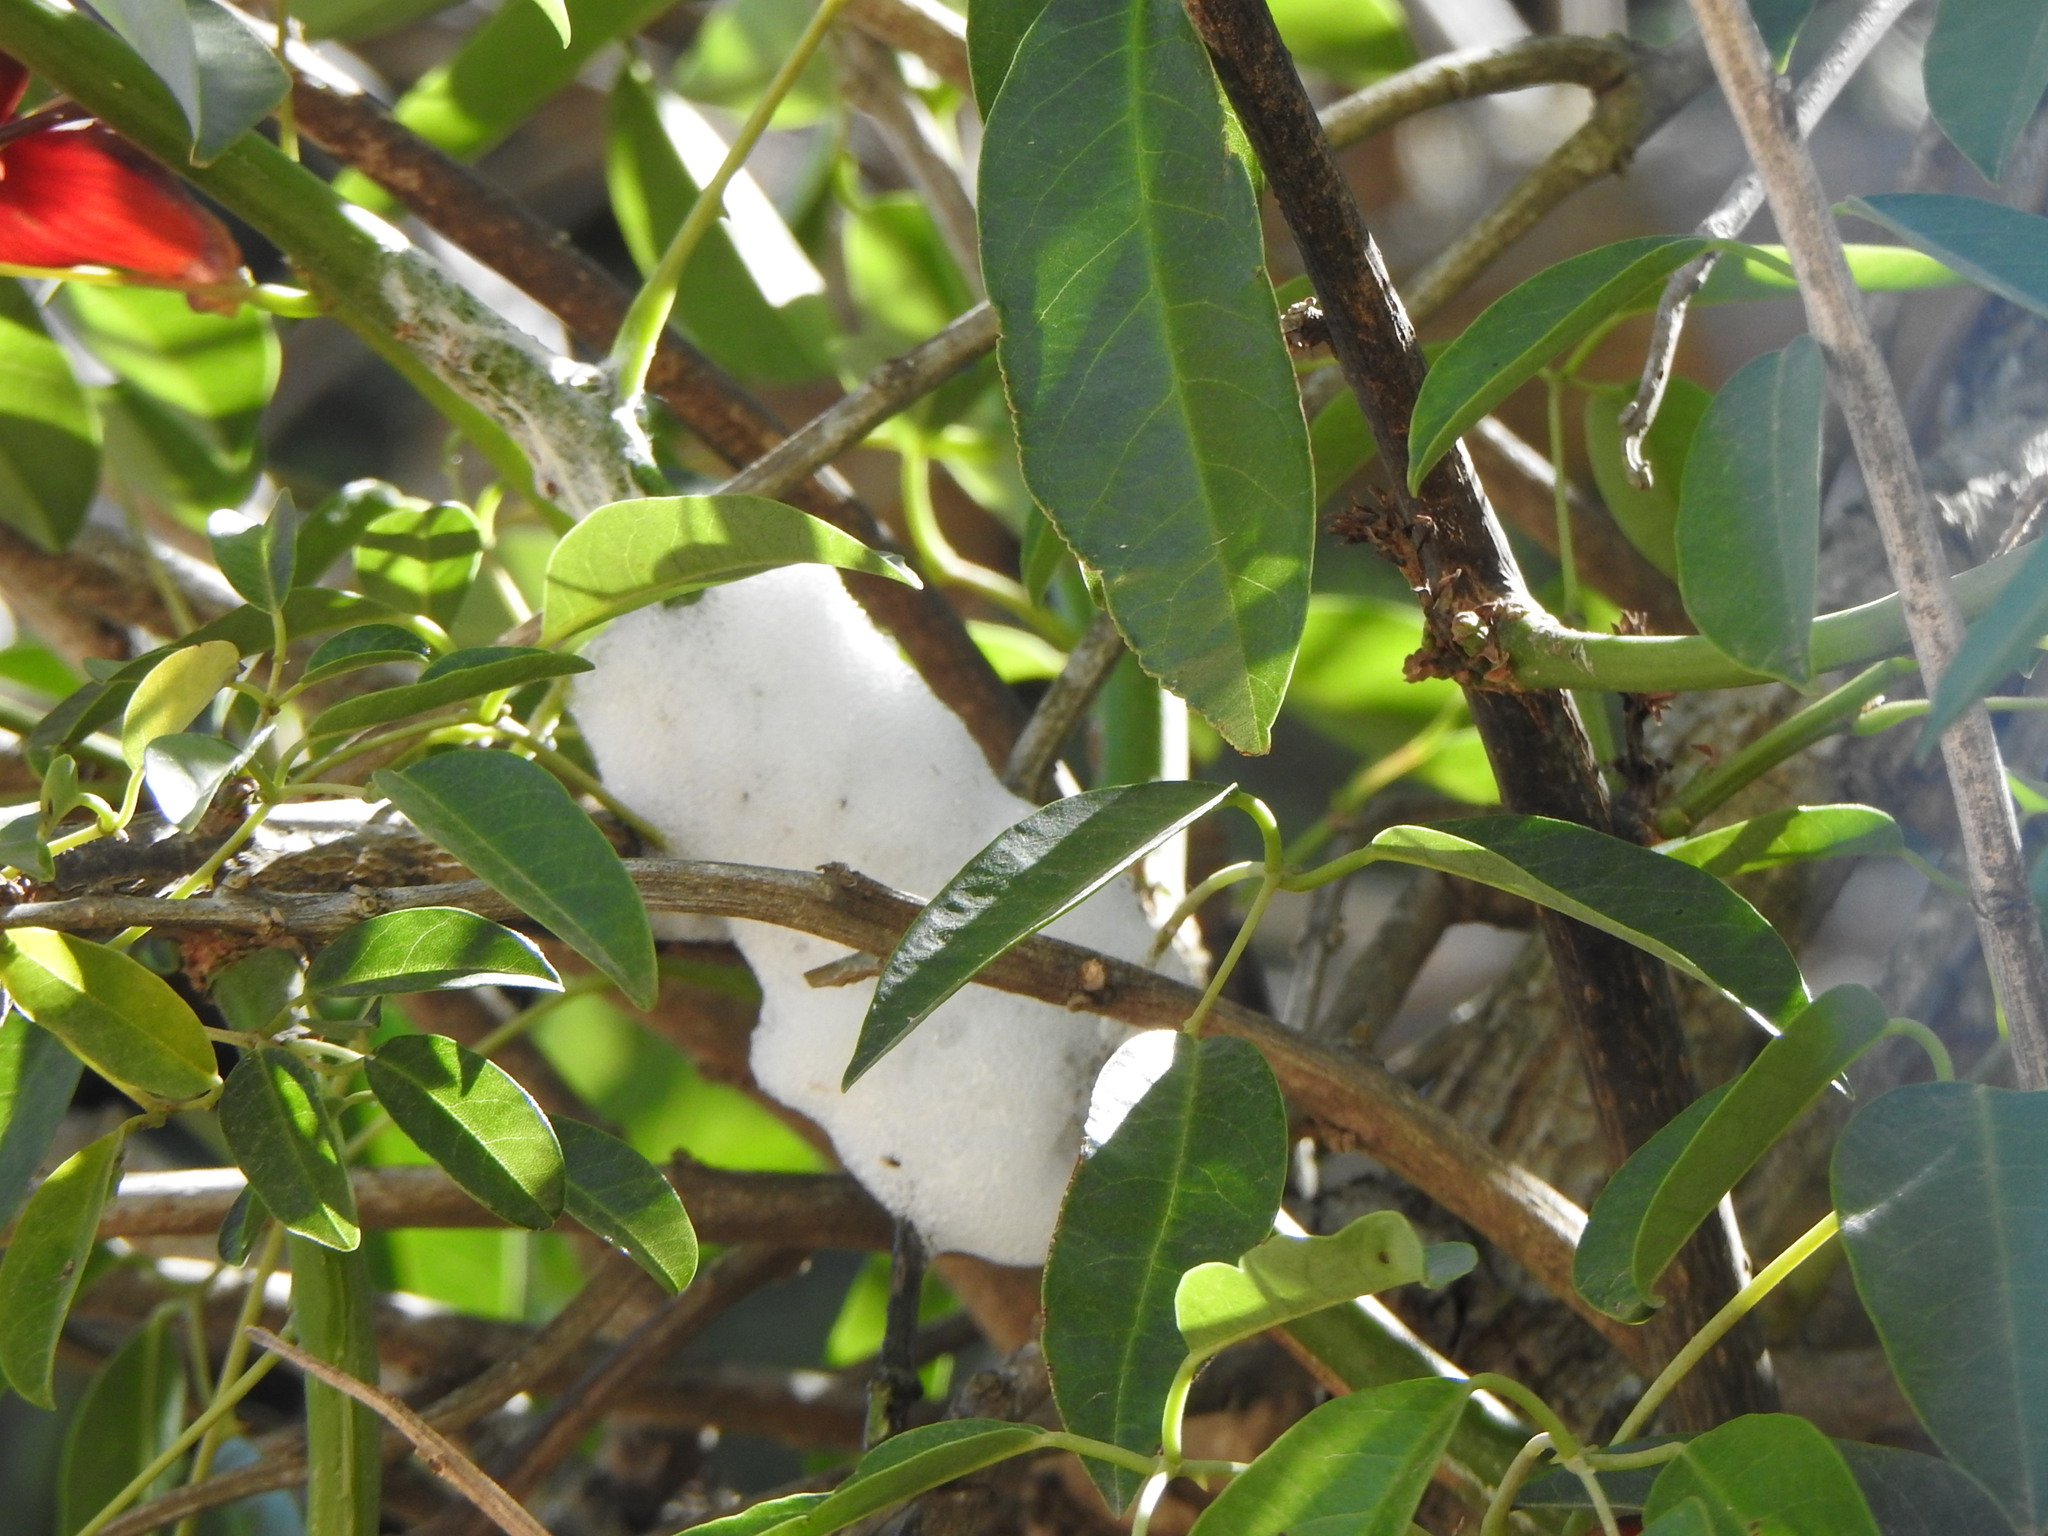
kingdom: Animalia
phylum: Arthropoda
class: Insecta
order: Hemiptera
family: Aphrophoridae
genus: Cephisus
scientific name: Cephisus siccifolius
